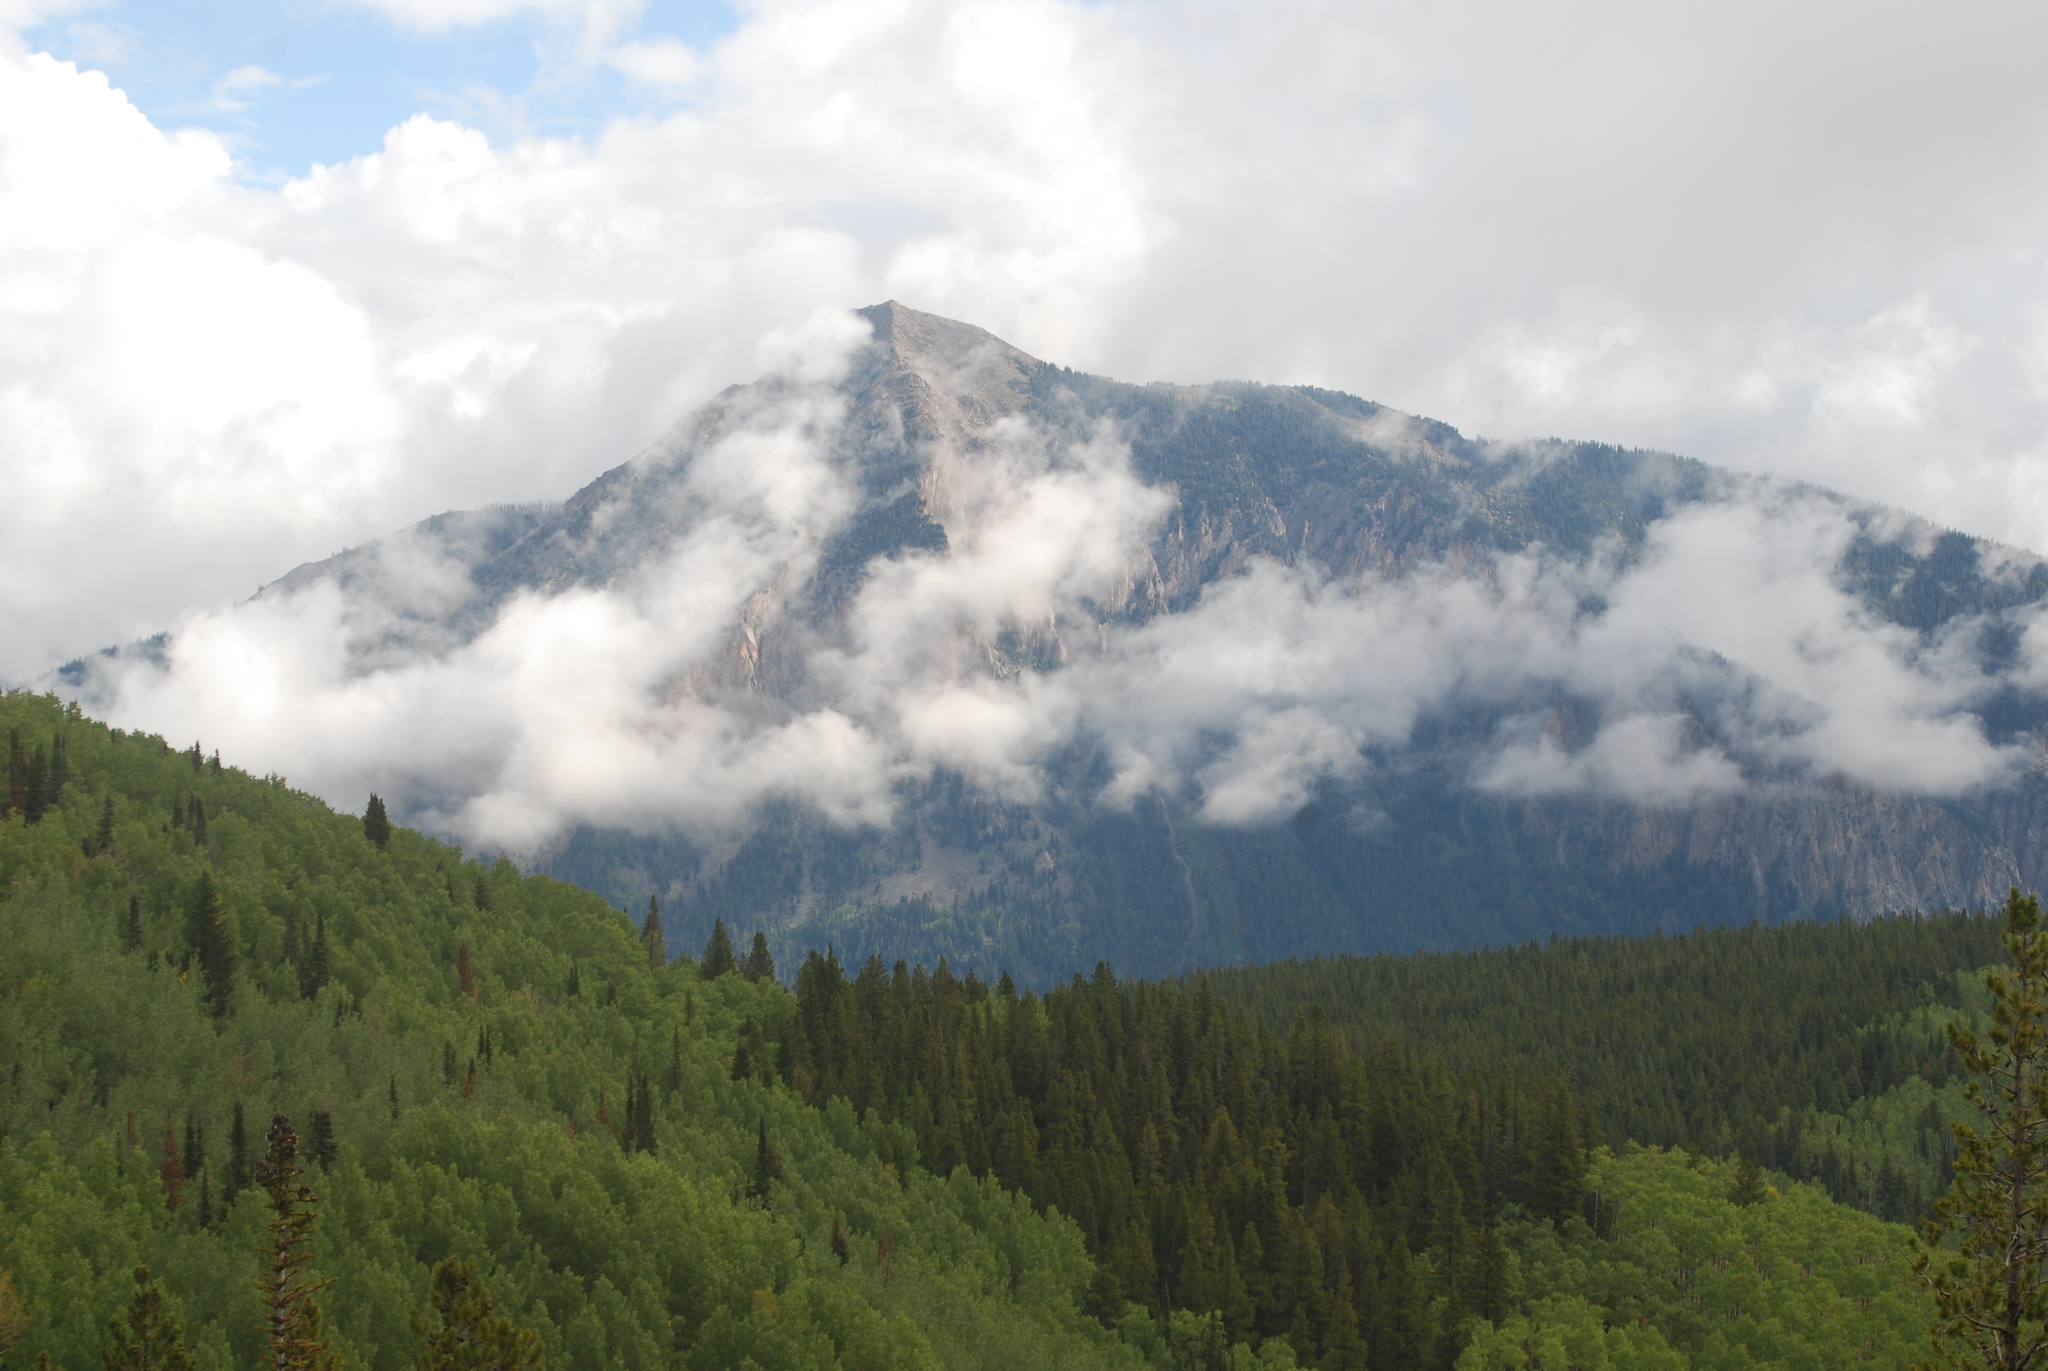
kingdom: Plantae
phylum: Tracheophyta
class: Magnoliopsida
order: Malpighiales
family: Salicaceae
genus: Populus
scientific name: Populus tremuloides
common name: Quaking aspen
